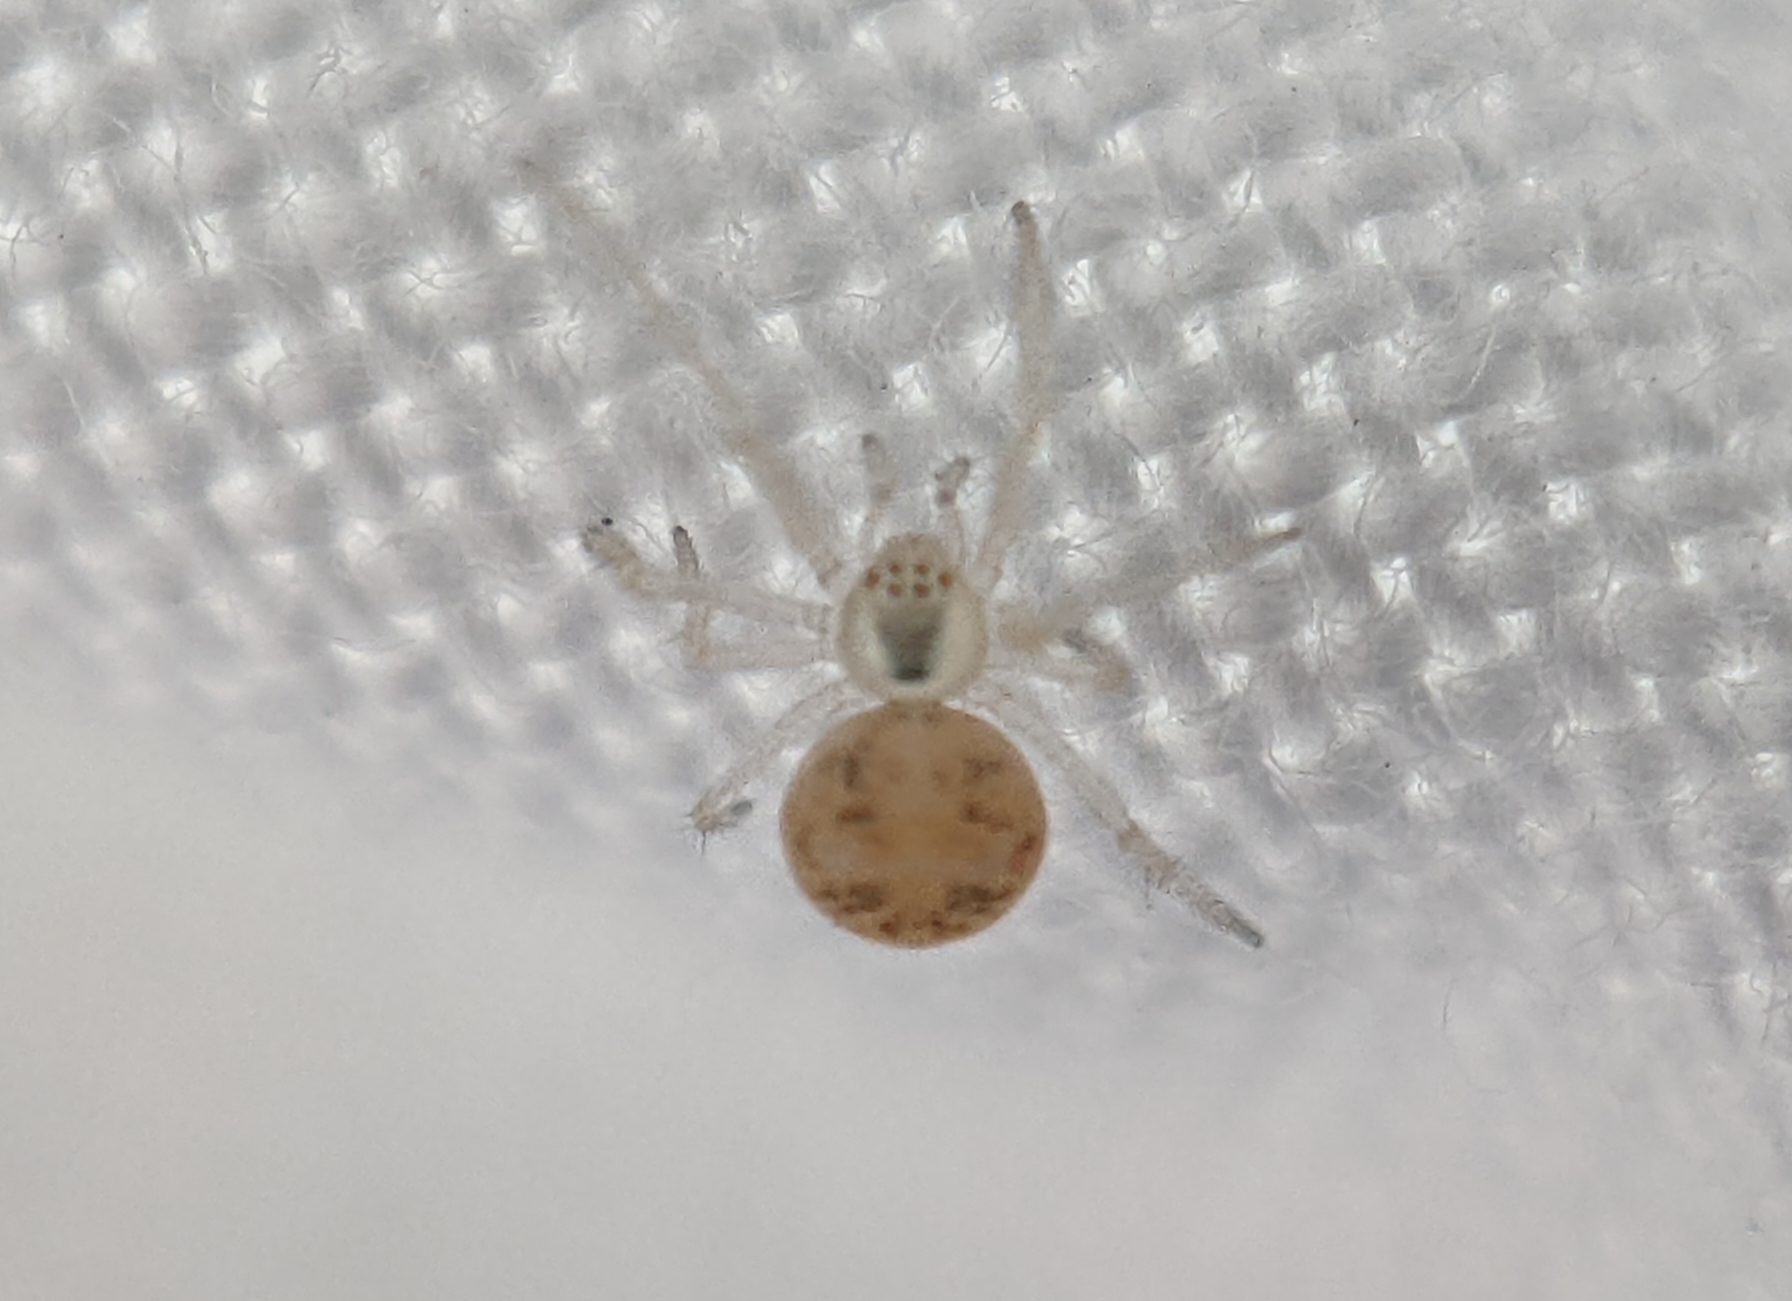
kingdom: Animalia
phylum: Arthropoda
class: Arachnida
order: Araneae
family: Theridiidae
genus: Paidiscura
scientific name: Paidiscura pallens
